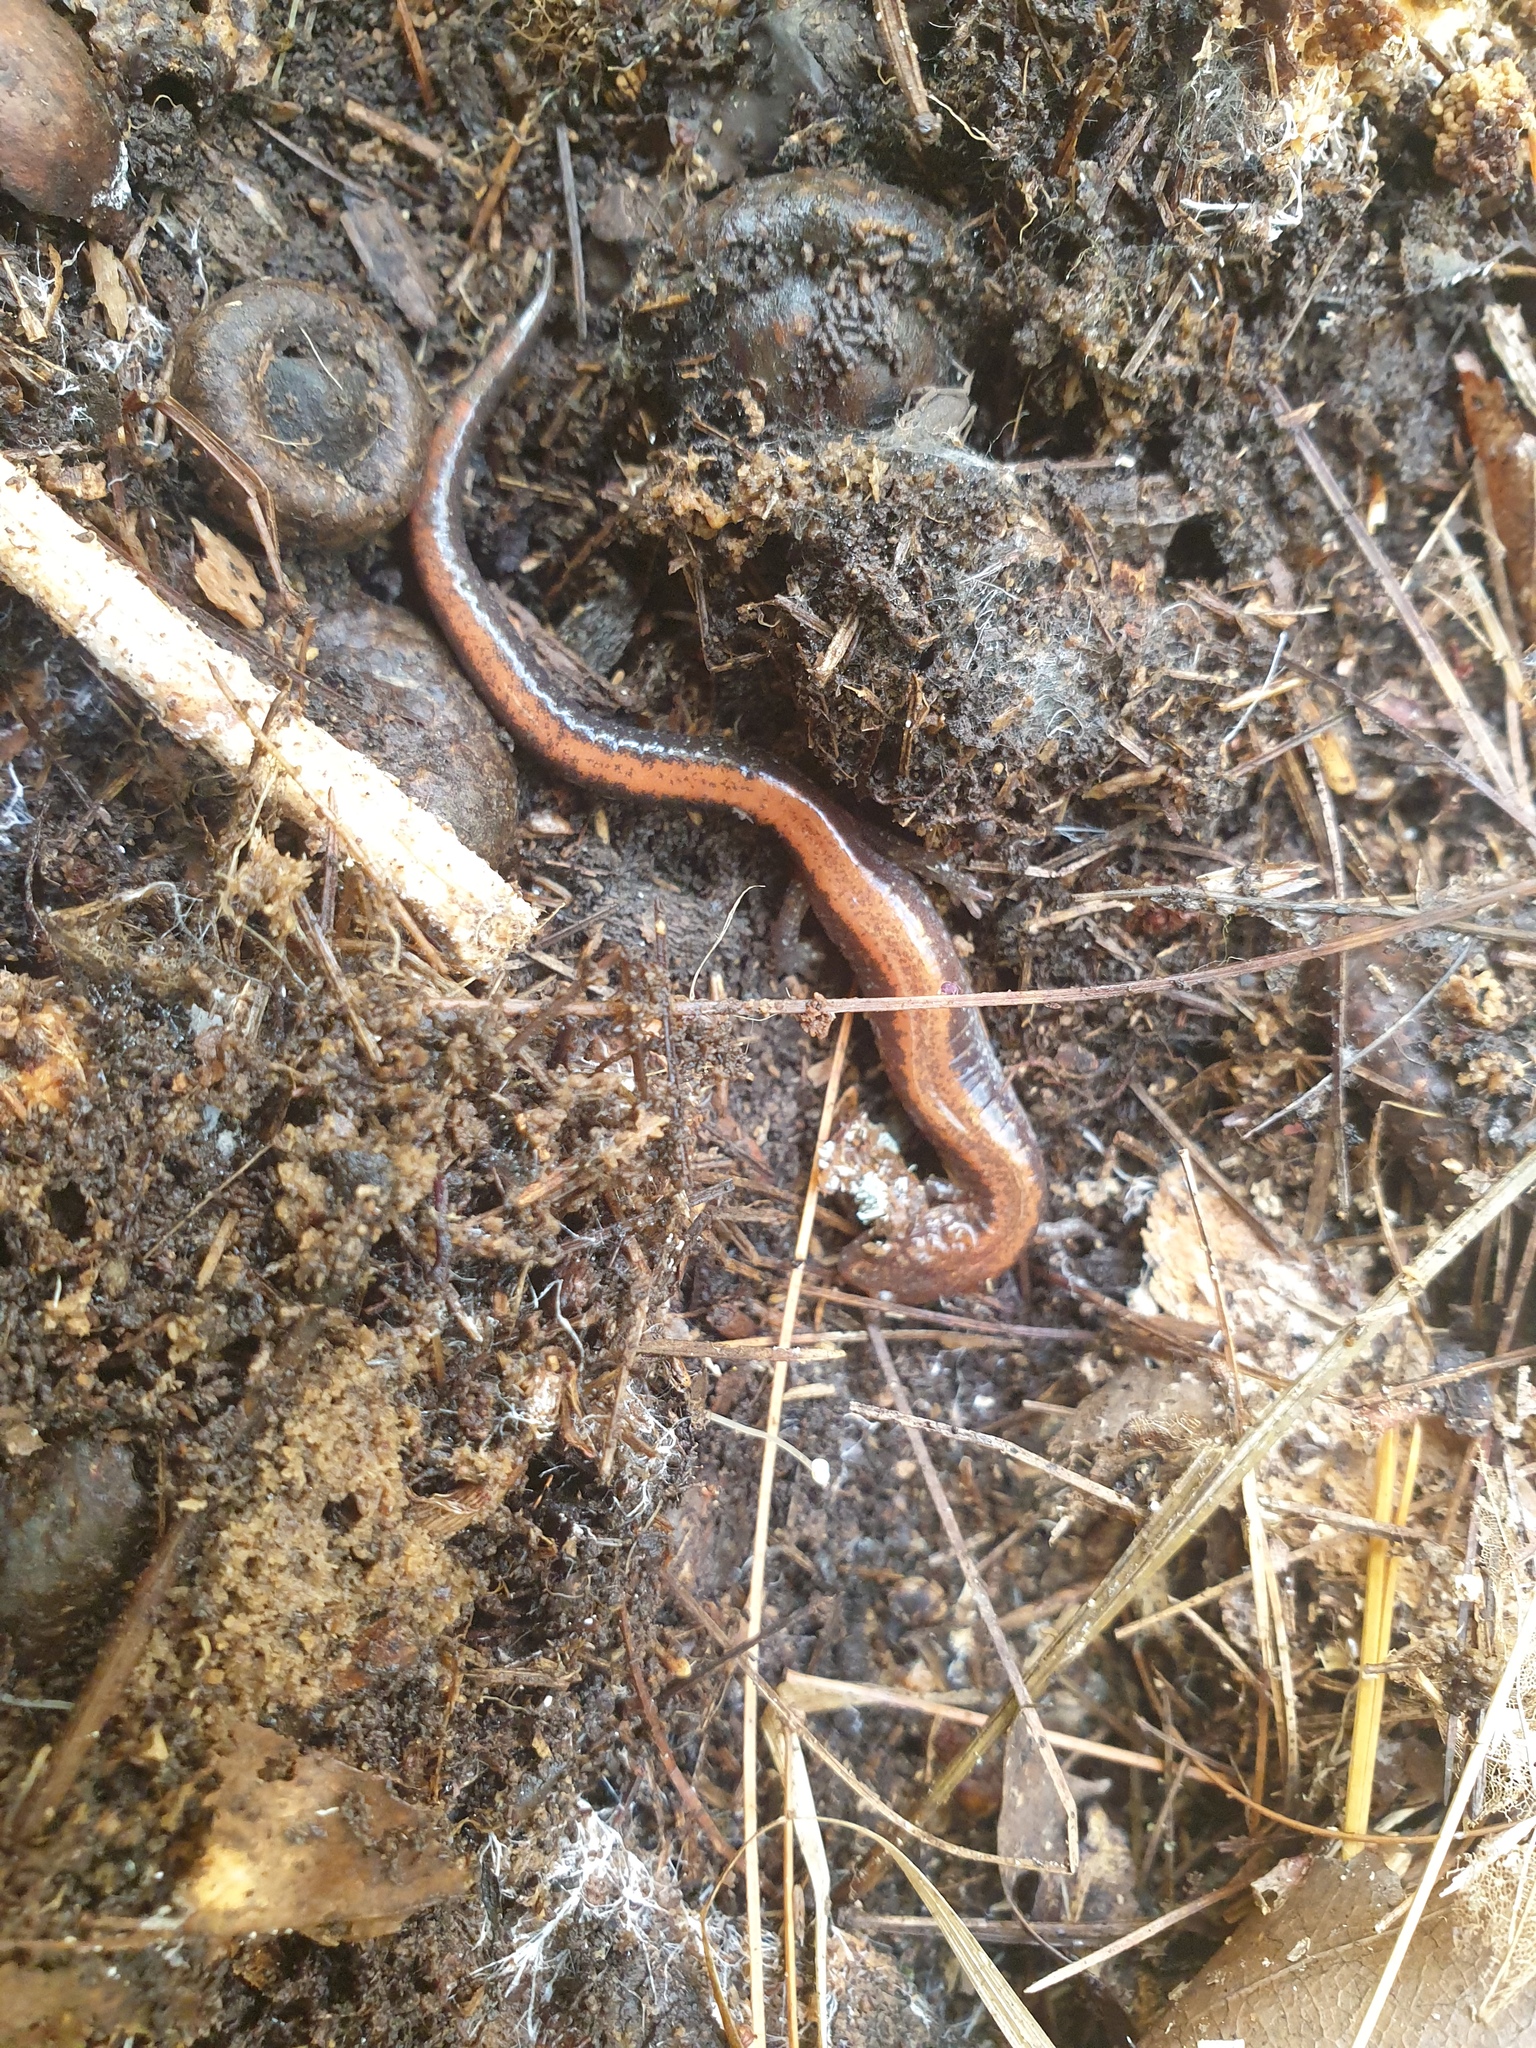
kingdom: Animalia
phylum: Chordata
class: Amphibia
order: Caudata
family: Plethodontidae
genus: Plethodon
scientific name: Plethodon cinereus
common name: Redback salamander
